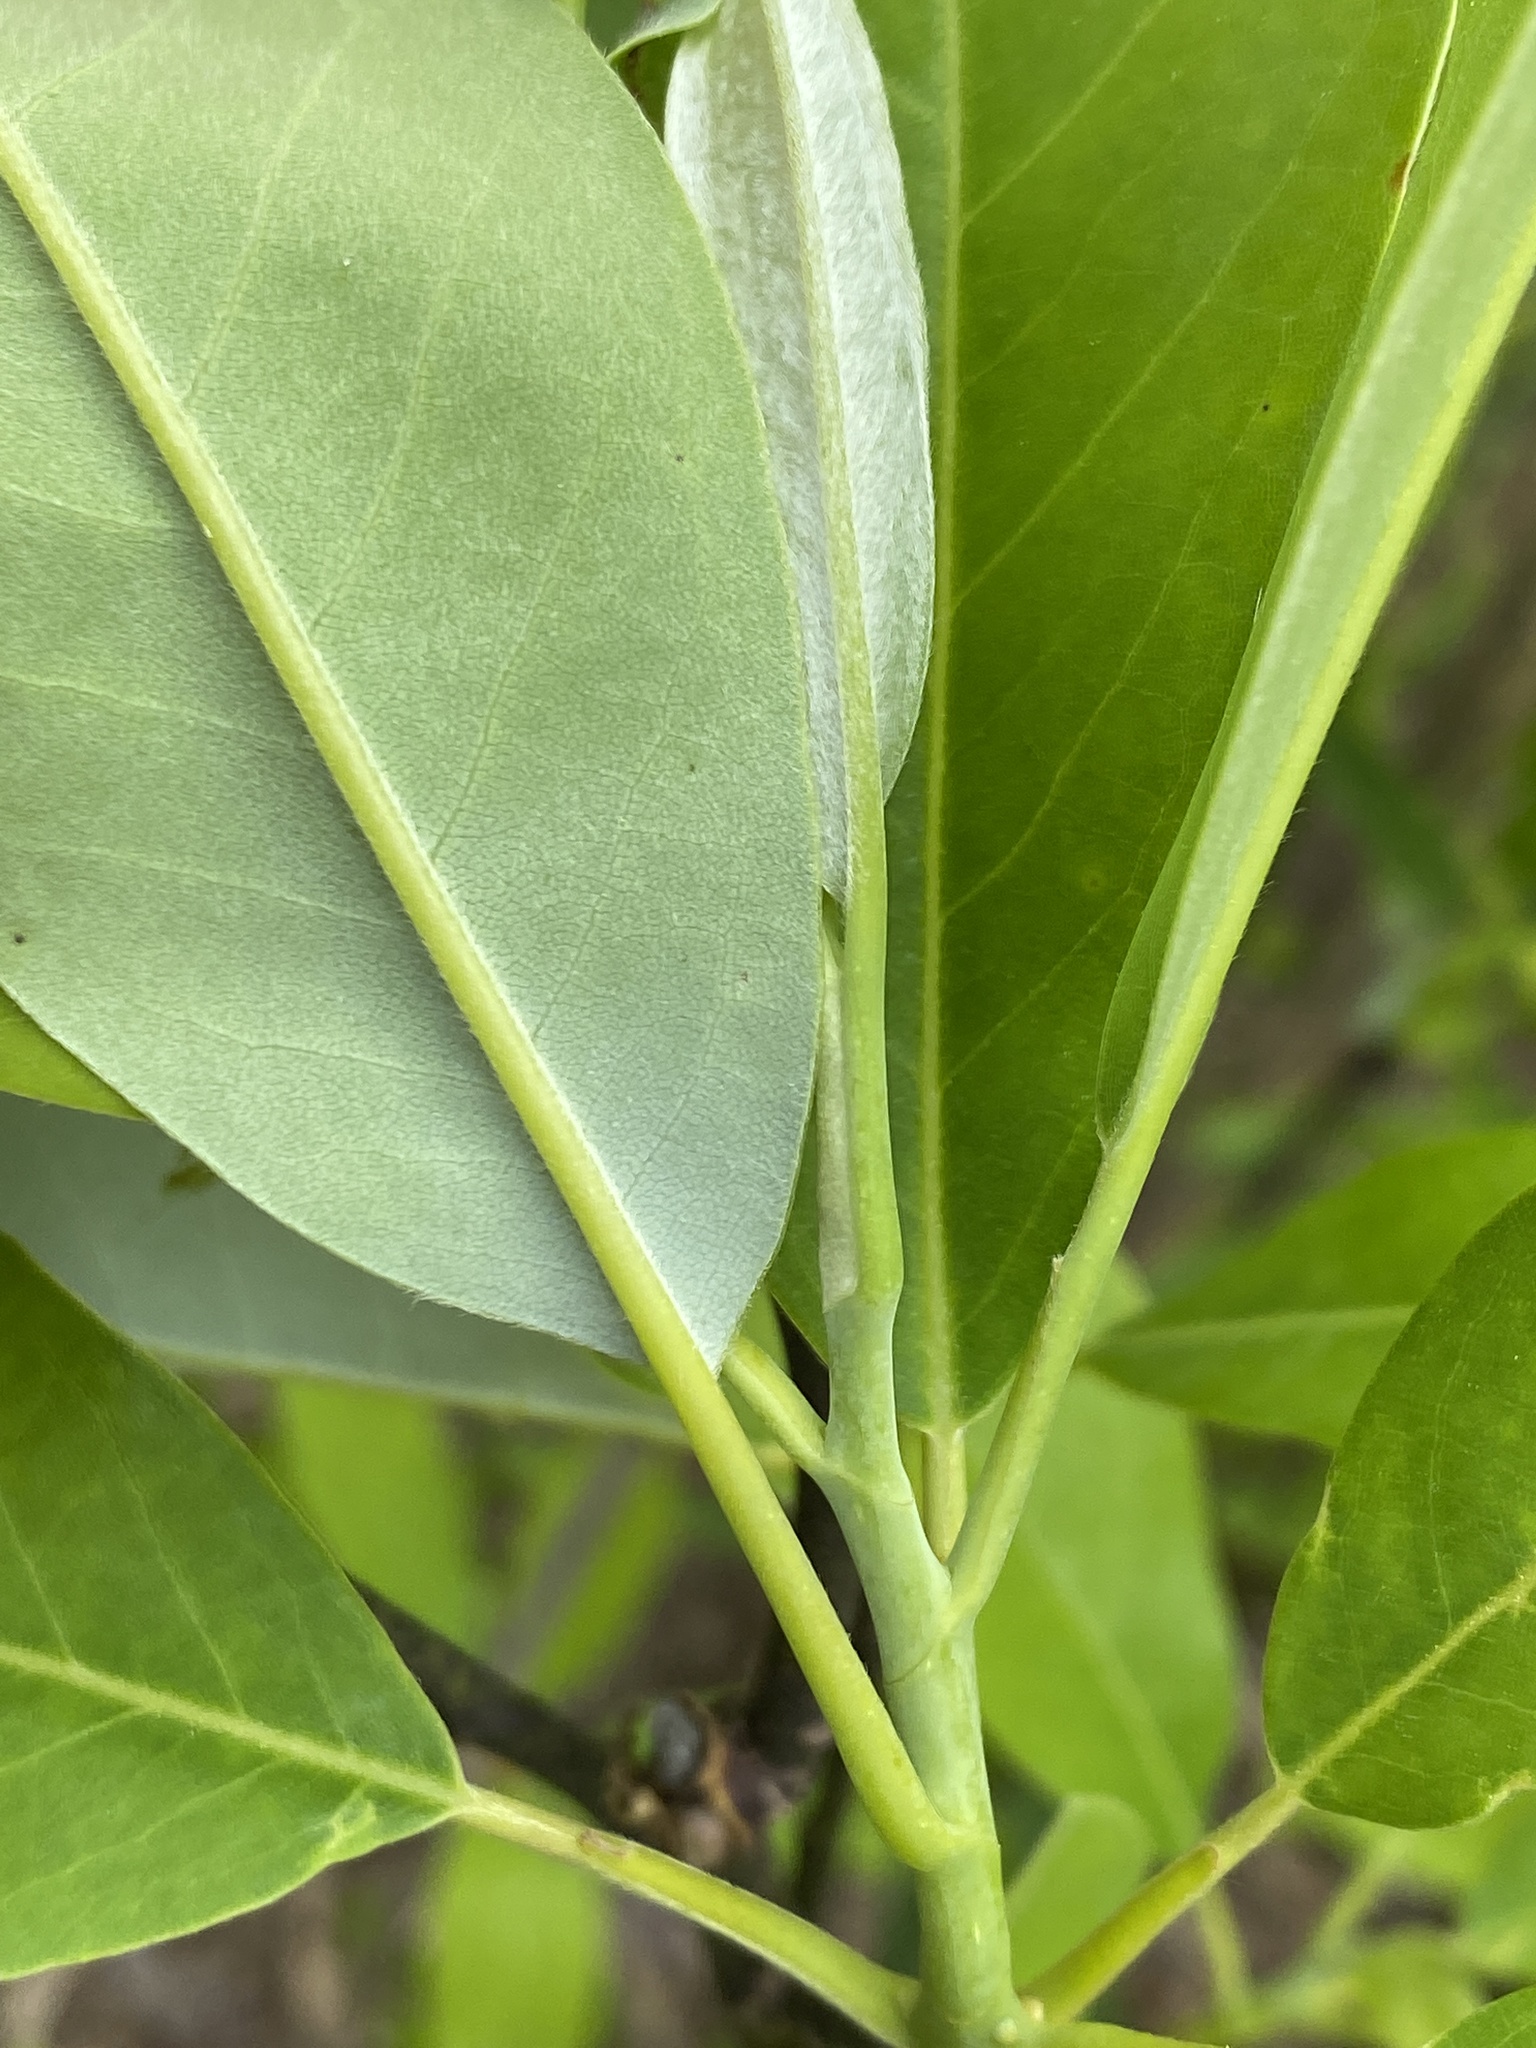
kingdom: Plantae
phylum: Tracheophyta
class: Magnoliopsida
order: Magnoliales
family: Magnoliaceae
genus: Magnolia
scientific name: Magnolia virginiana
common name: Swamp bay
